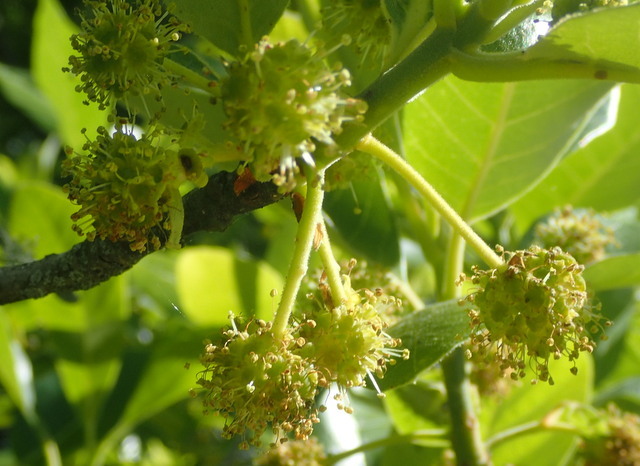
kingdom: Plantae
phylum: Tracheophyta
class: Magnoliopsida
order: Cornales
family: Nyssaceae
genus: Nyssa
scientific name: Nyssa ogeche
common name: Ogeechee tupelo
